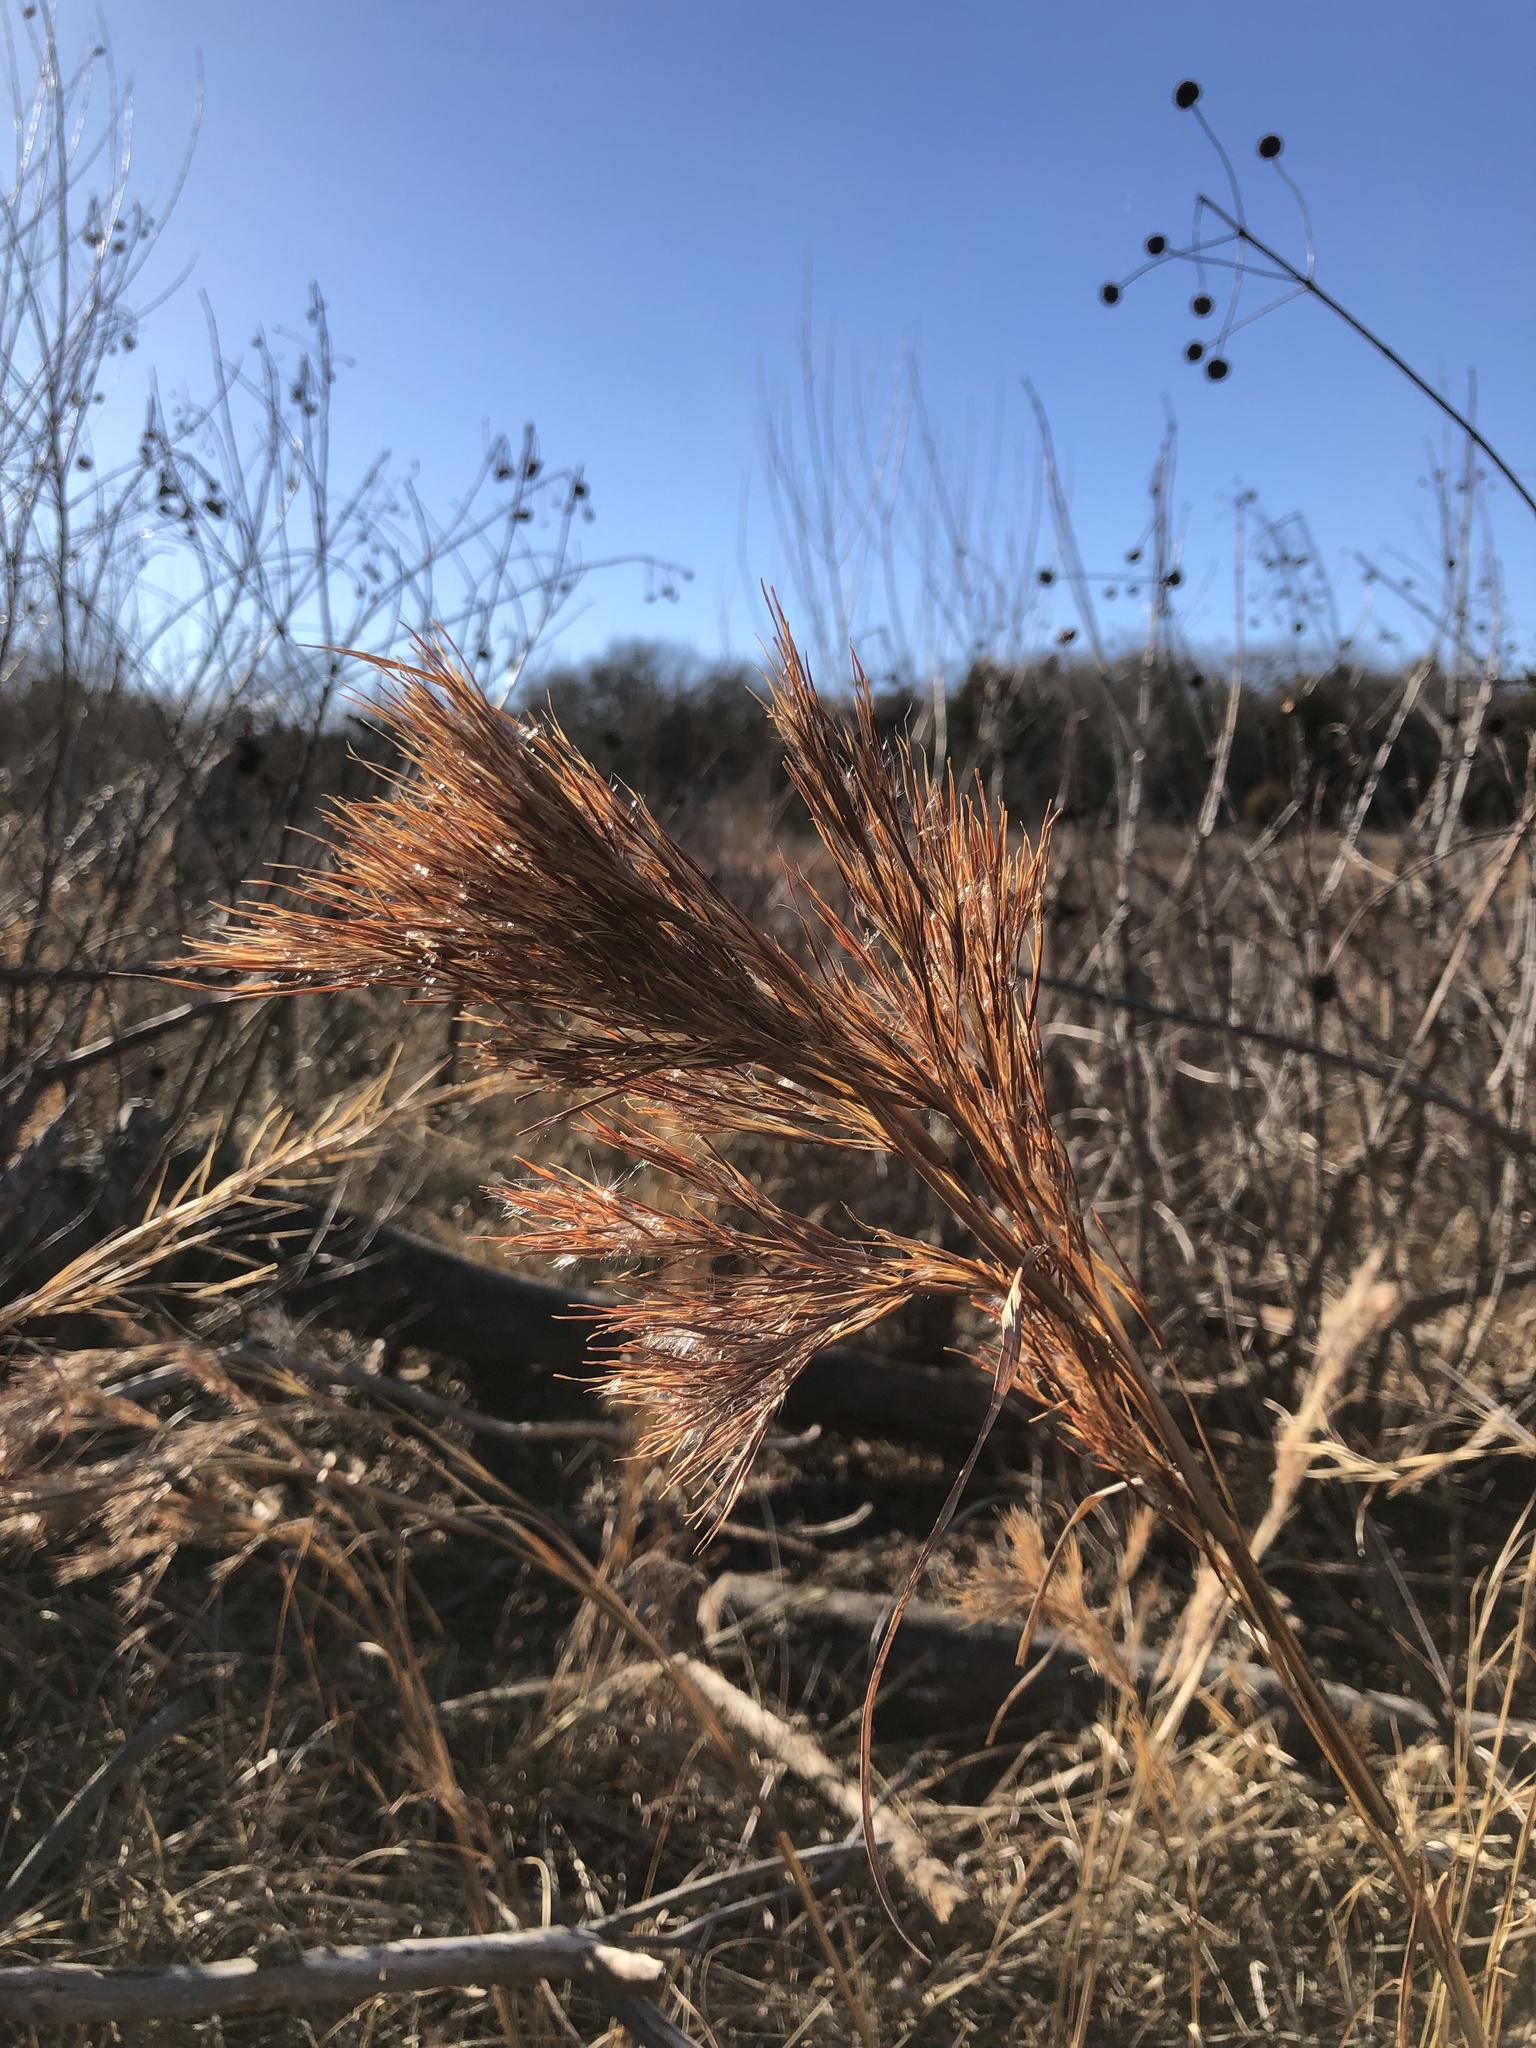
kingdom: Plantae
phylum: Tracheophyta
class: Liliopsida
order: Poales
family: Poaceae
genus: Andropogon
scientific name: Andropogon tenuispatheus
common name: Bushy bluestem
